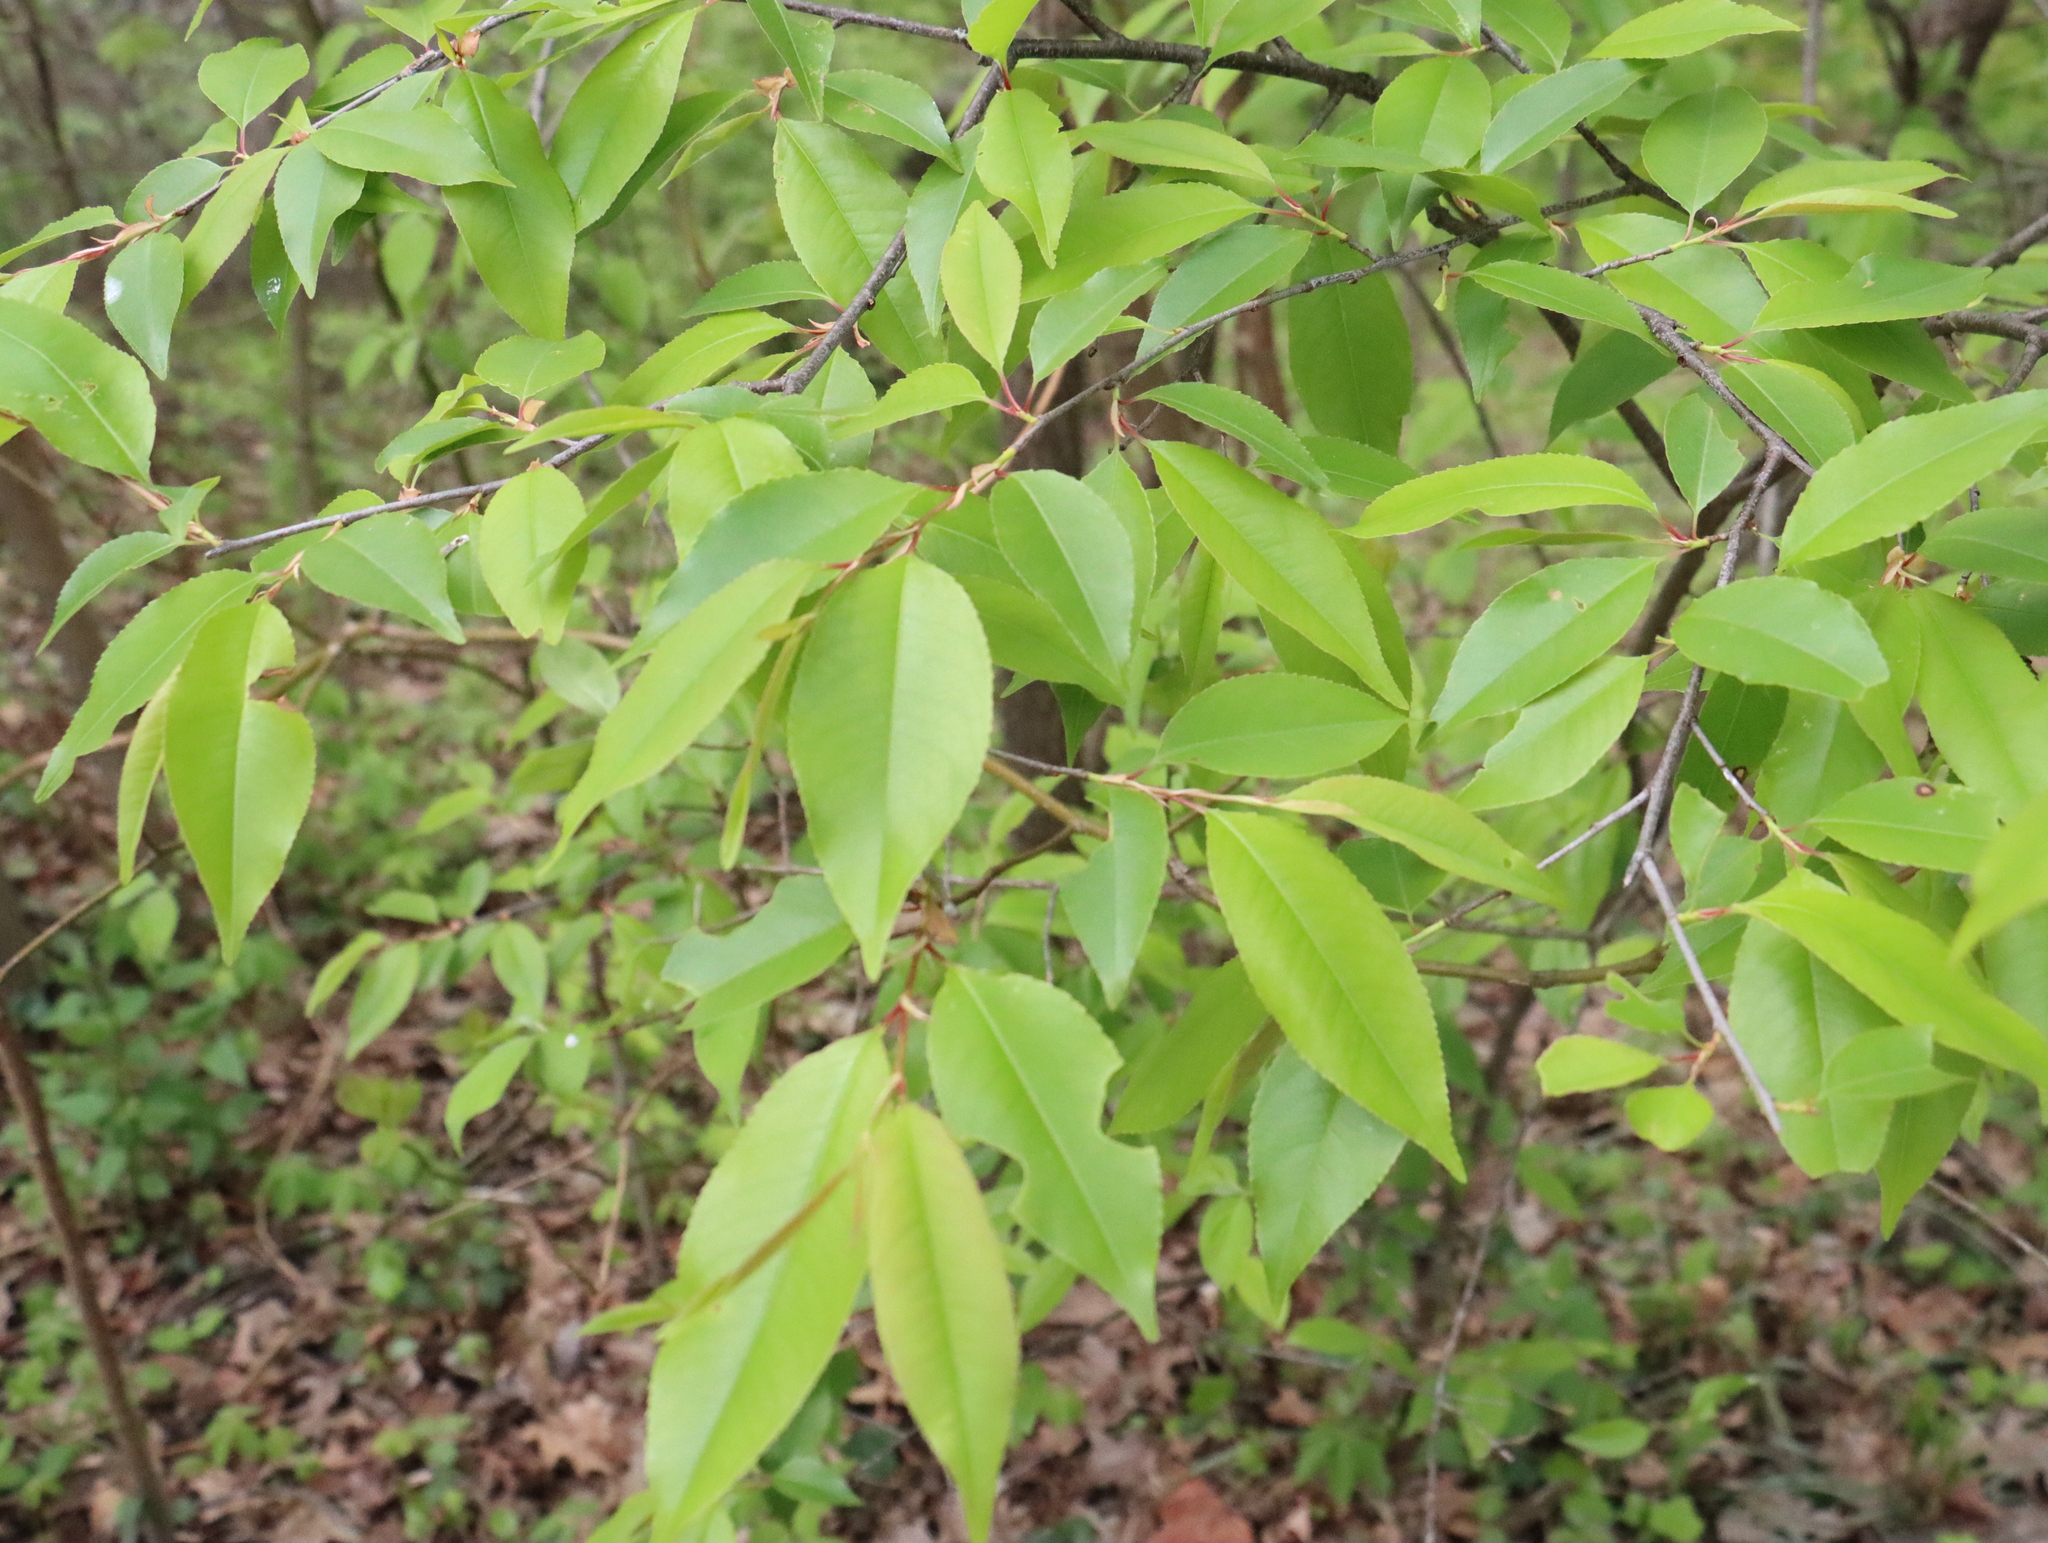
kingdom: Plantae
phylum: Tracheophyta
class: Magnoliopsida
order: Rosales
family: Rosaceae
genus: Prunus
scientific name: Prunus serotina
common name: Black cherry
